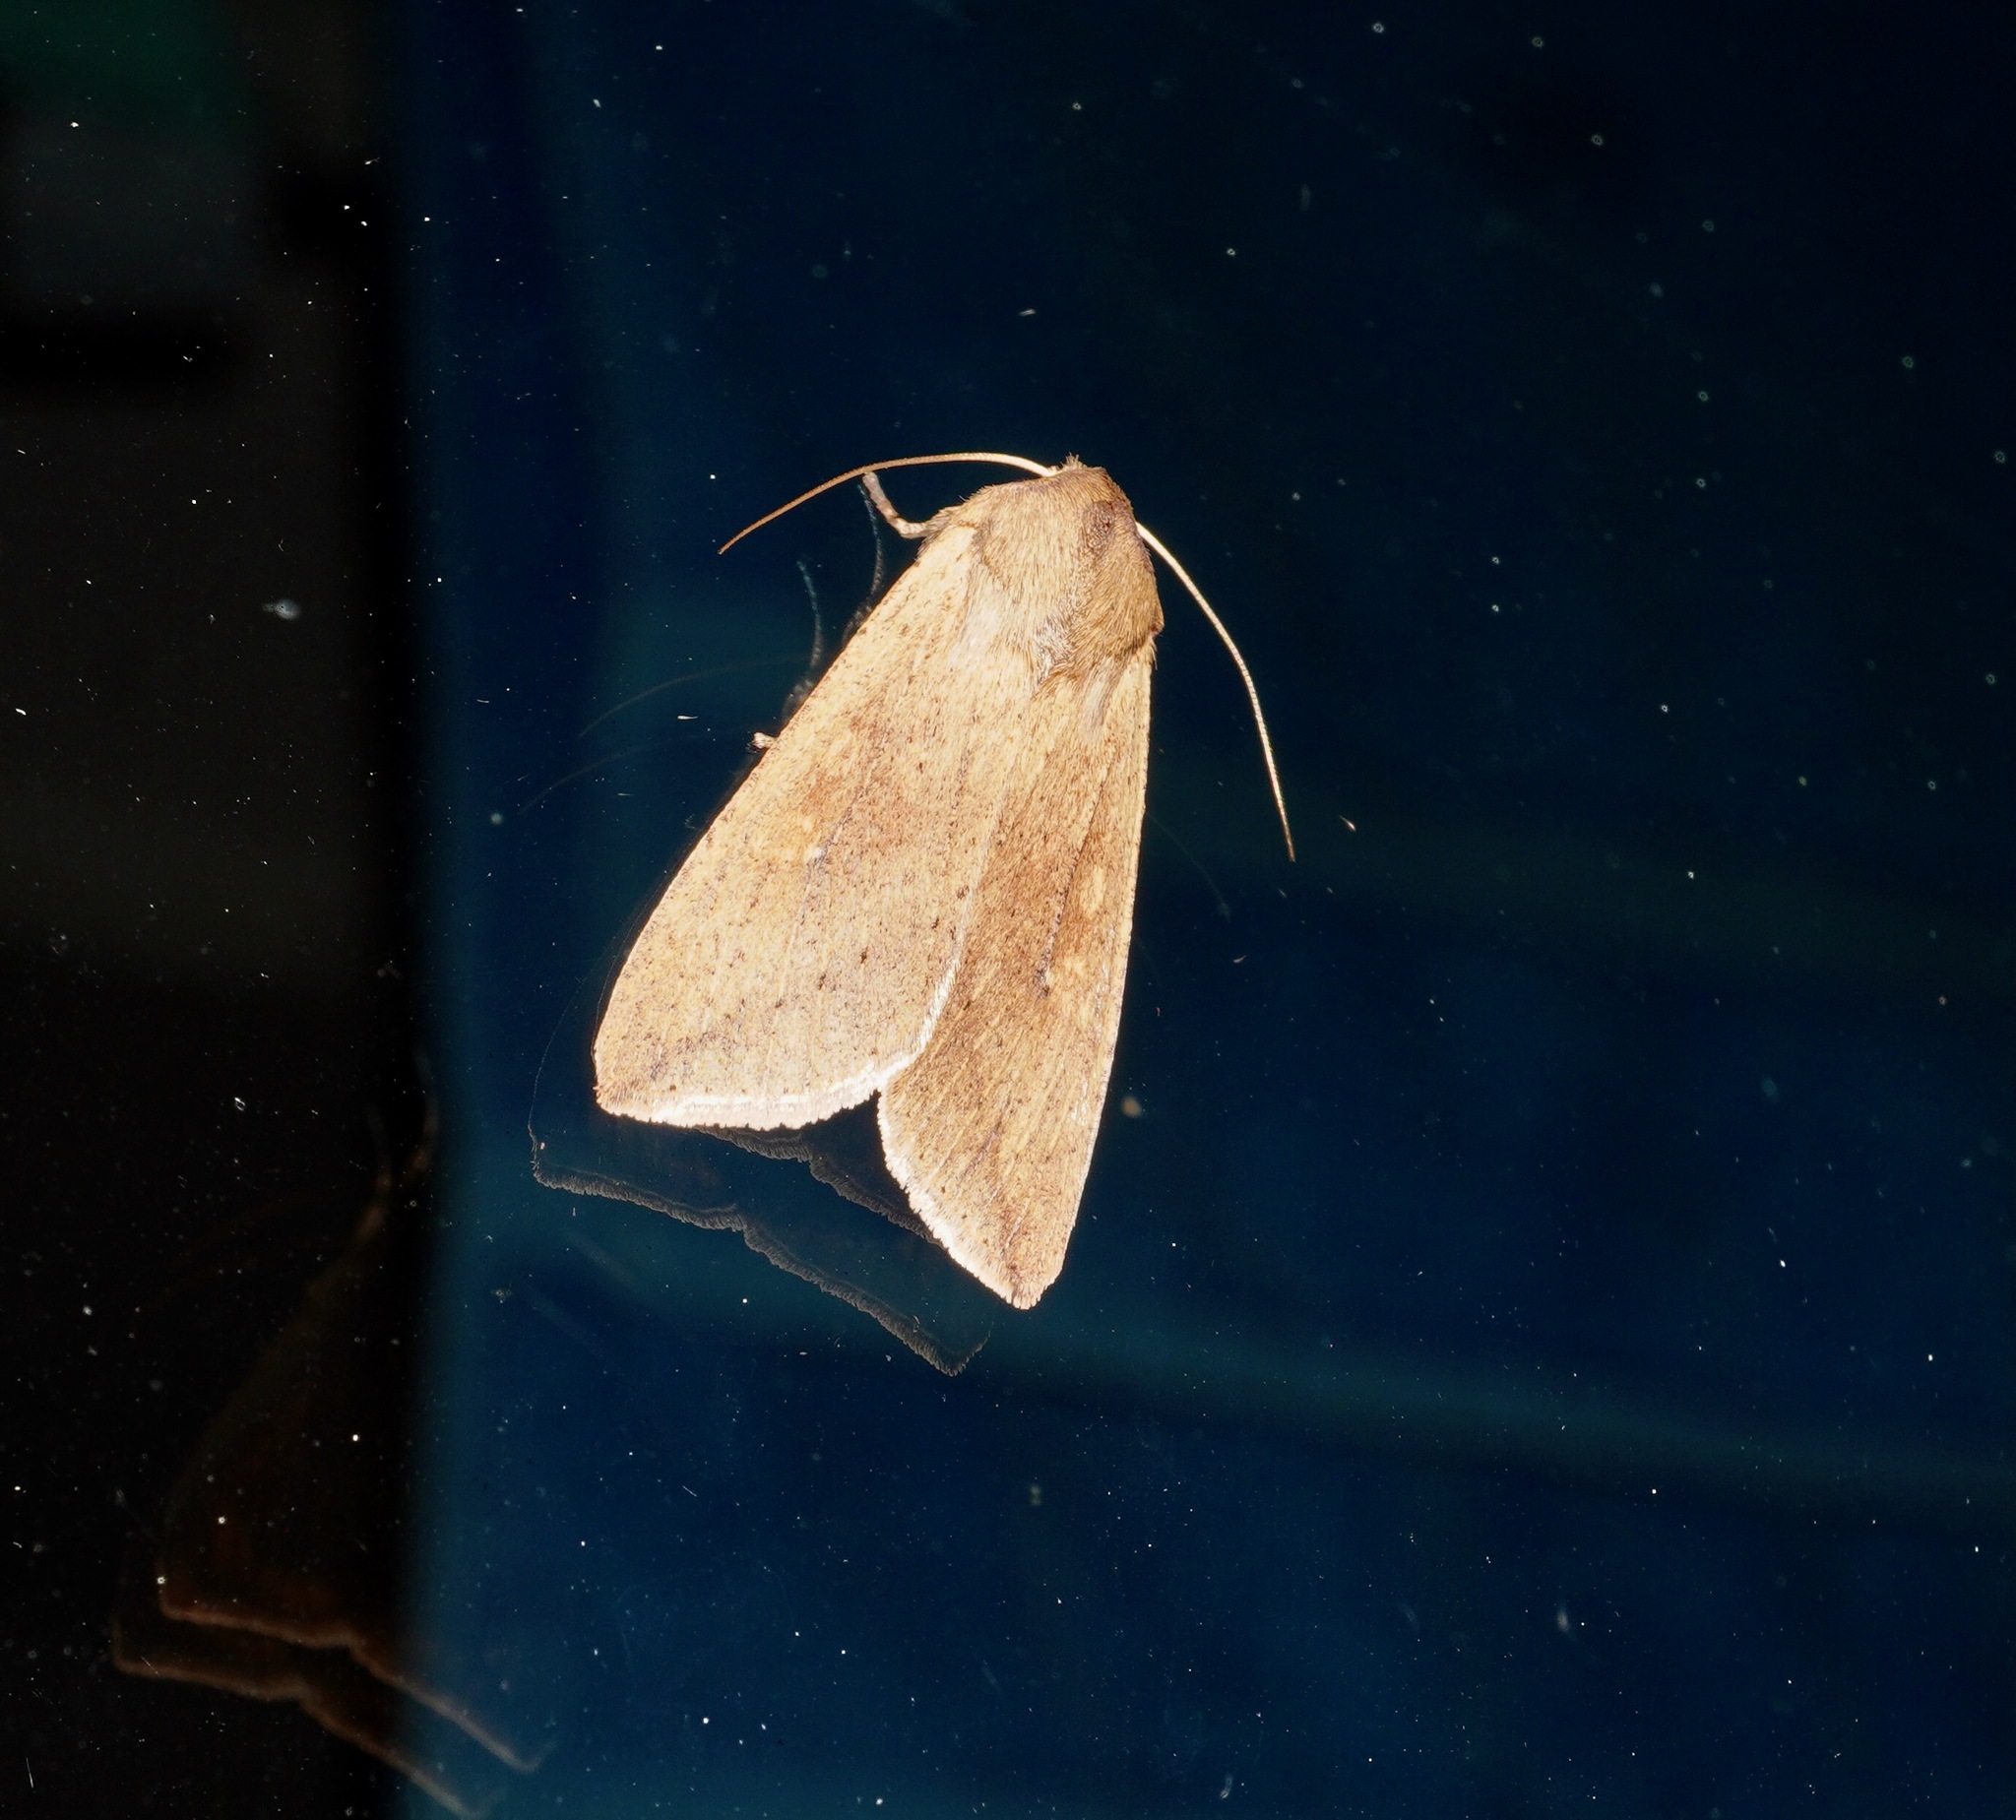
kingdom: Animalia
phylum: Arthropoda
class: Insecta
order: Lepidoptera
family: Noctuidae
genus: Mythimna
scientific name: Mythimna separata
